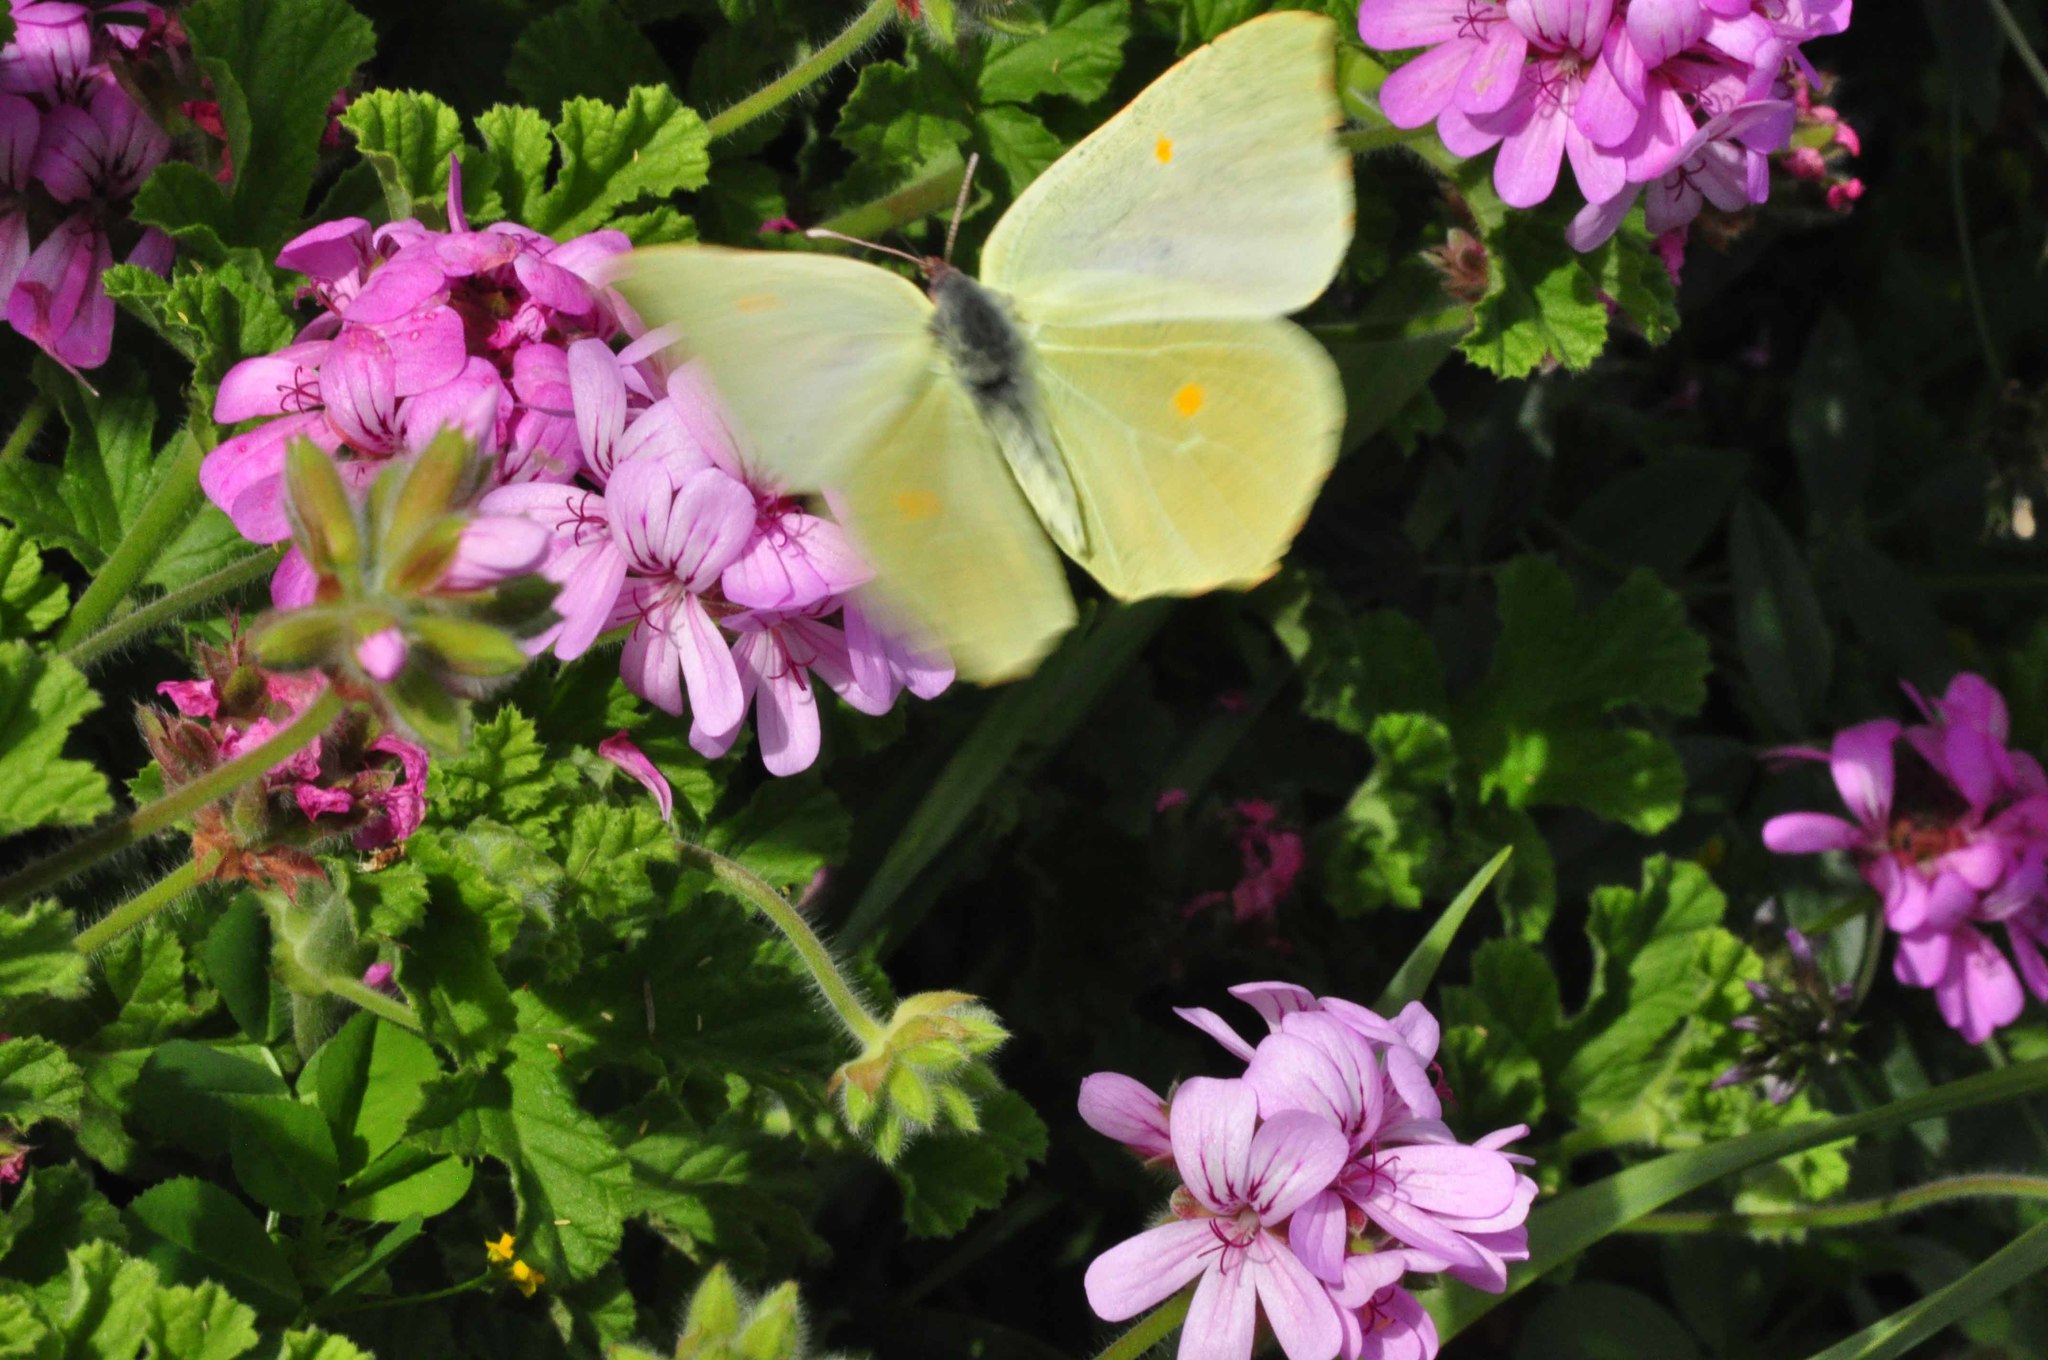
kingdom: Animalia
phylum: Arthropoda
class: Insecta
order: Lepidoptera
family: Pieridae
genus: Gonepteryx
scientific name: Gonepteryx cleobule
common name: Canary brimstone
